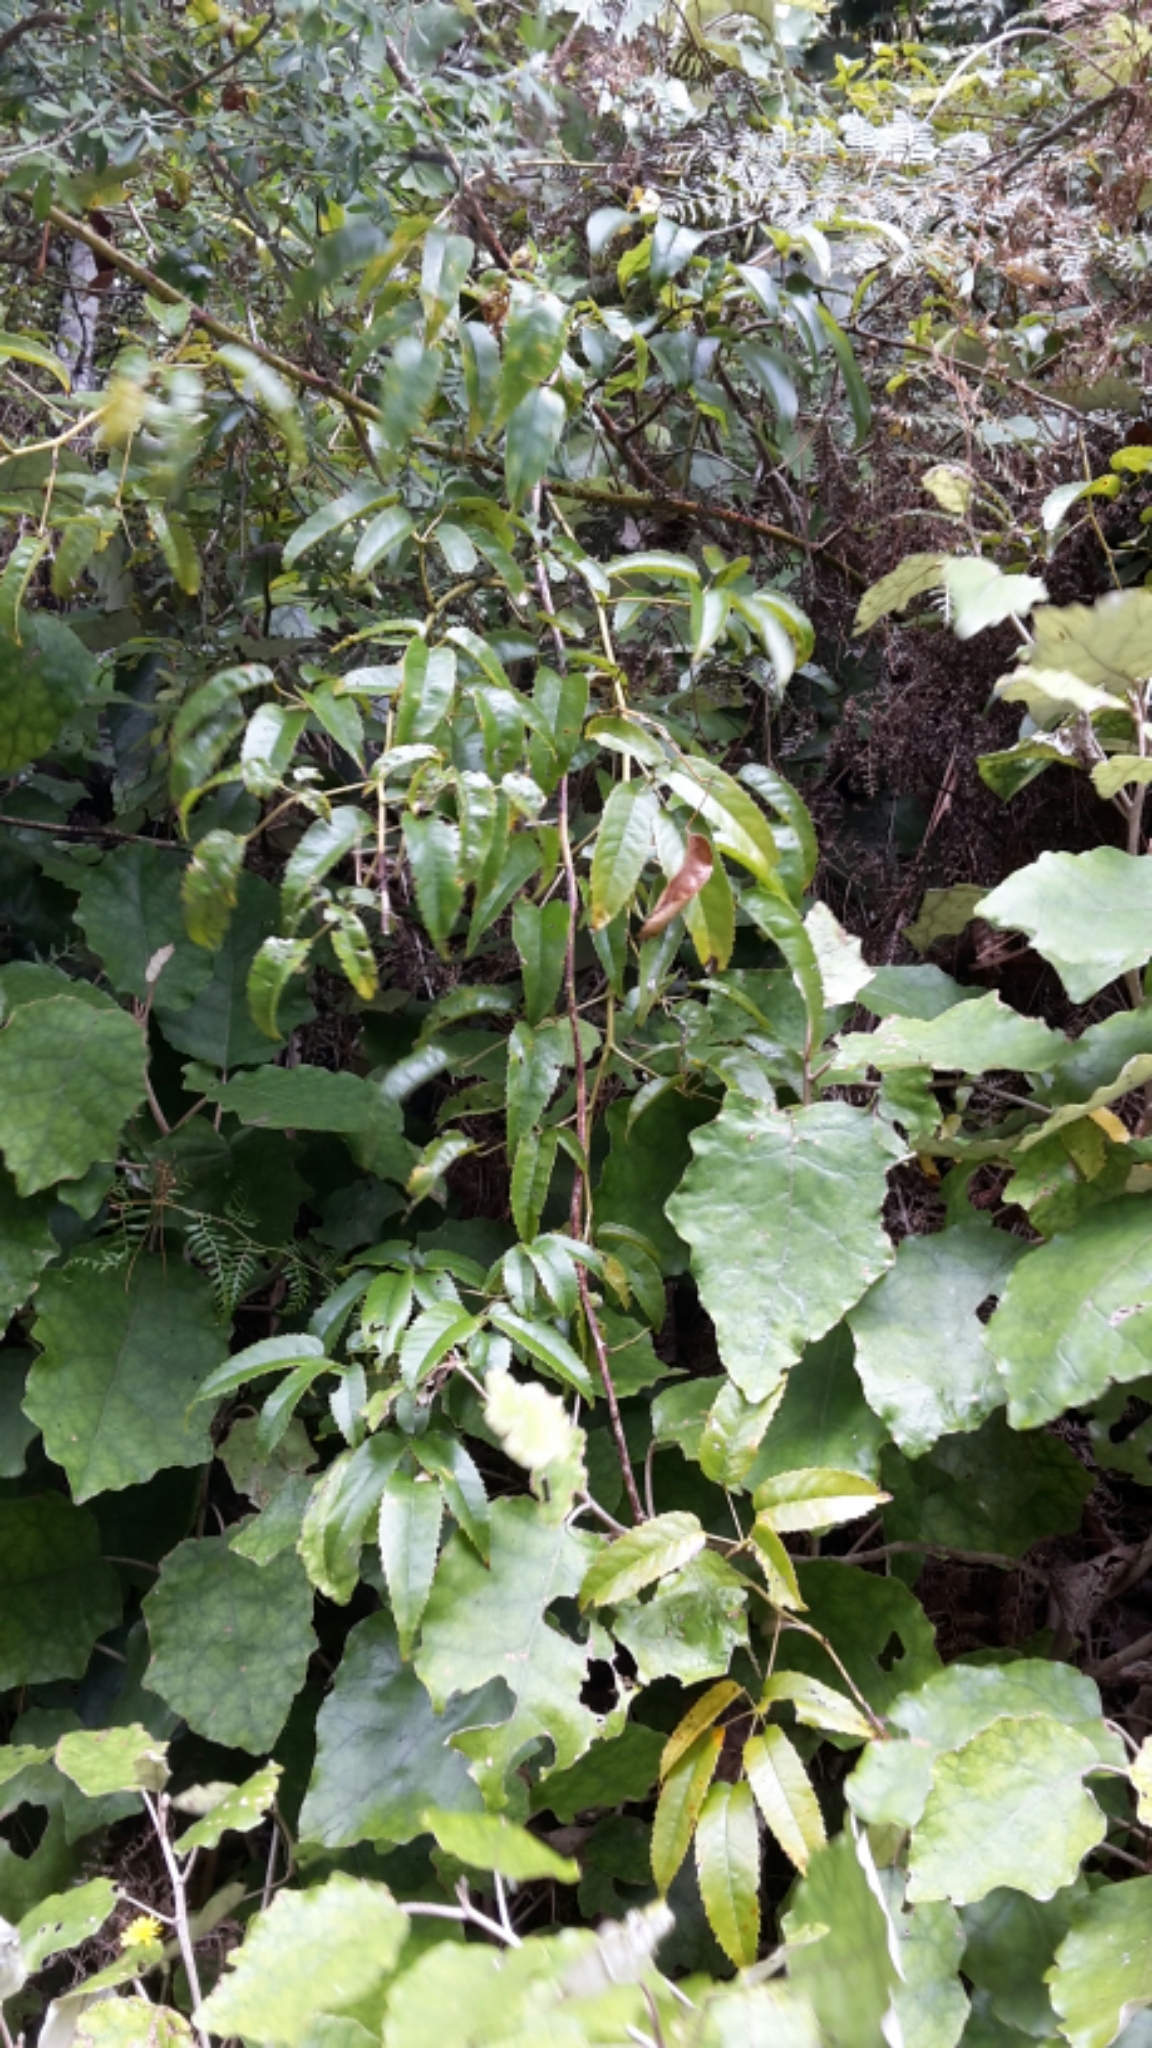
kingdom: Plantae
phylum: Tracheophyta
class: Magnoliopsida
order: Rosales
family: Rosaceae
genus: Rubus
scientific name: Rubus cissoides
